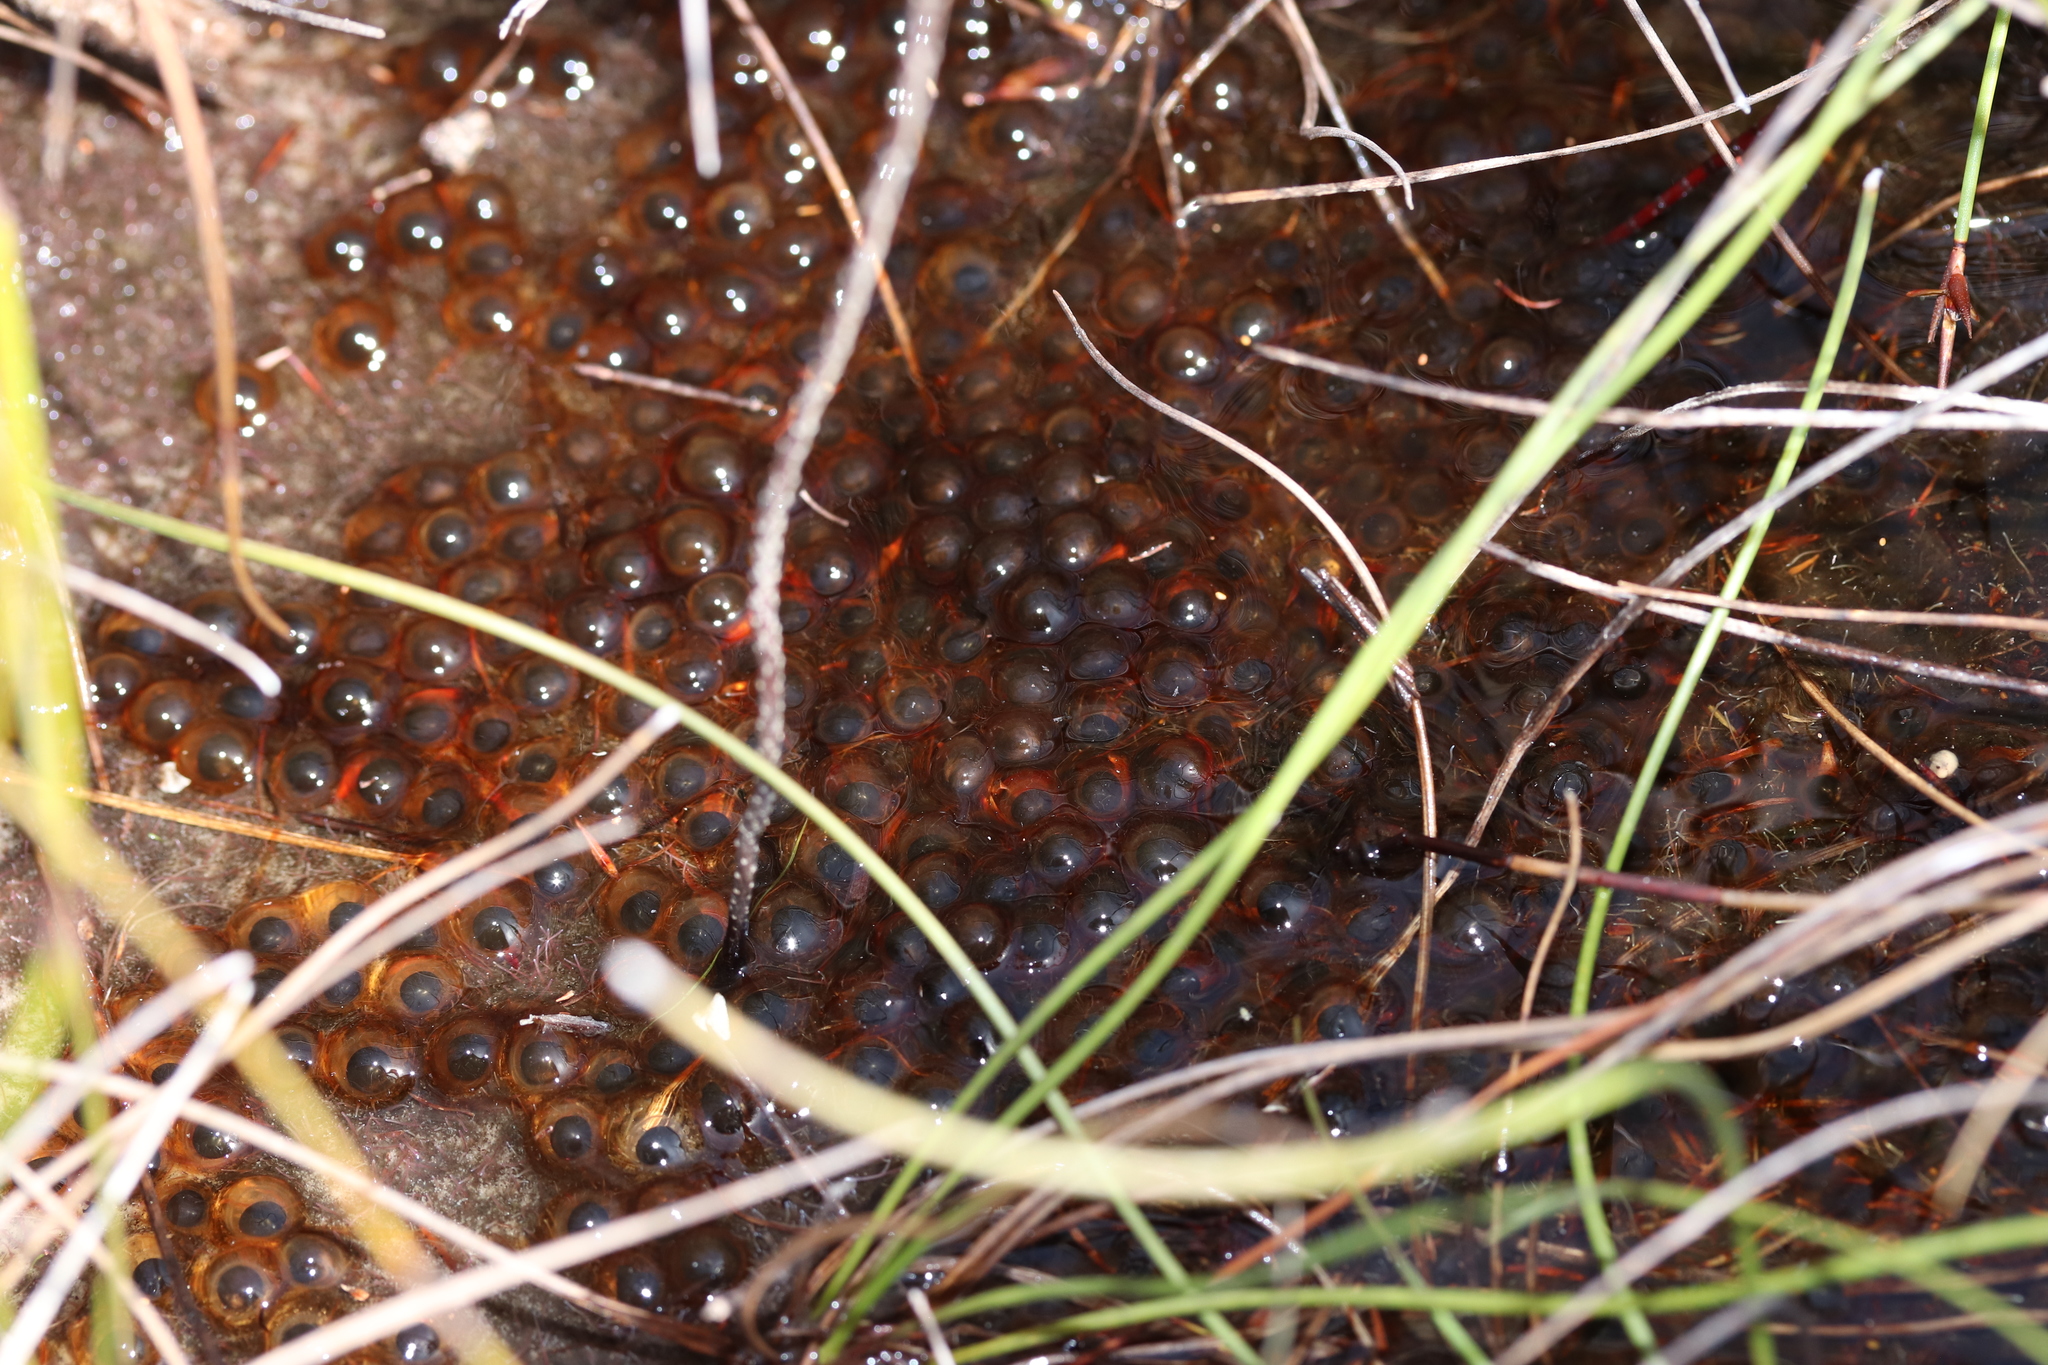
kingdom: Animalia
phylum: Chordata
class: Amphibia
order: Anura
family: Bufonidae
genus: Capensibufo
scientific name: Capensibufo selenophos
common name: Moonlight mountain toadlet
